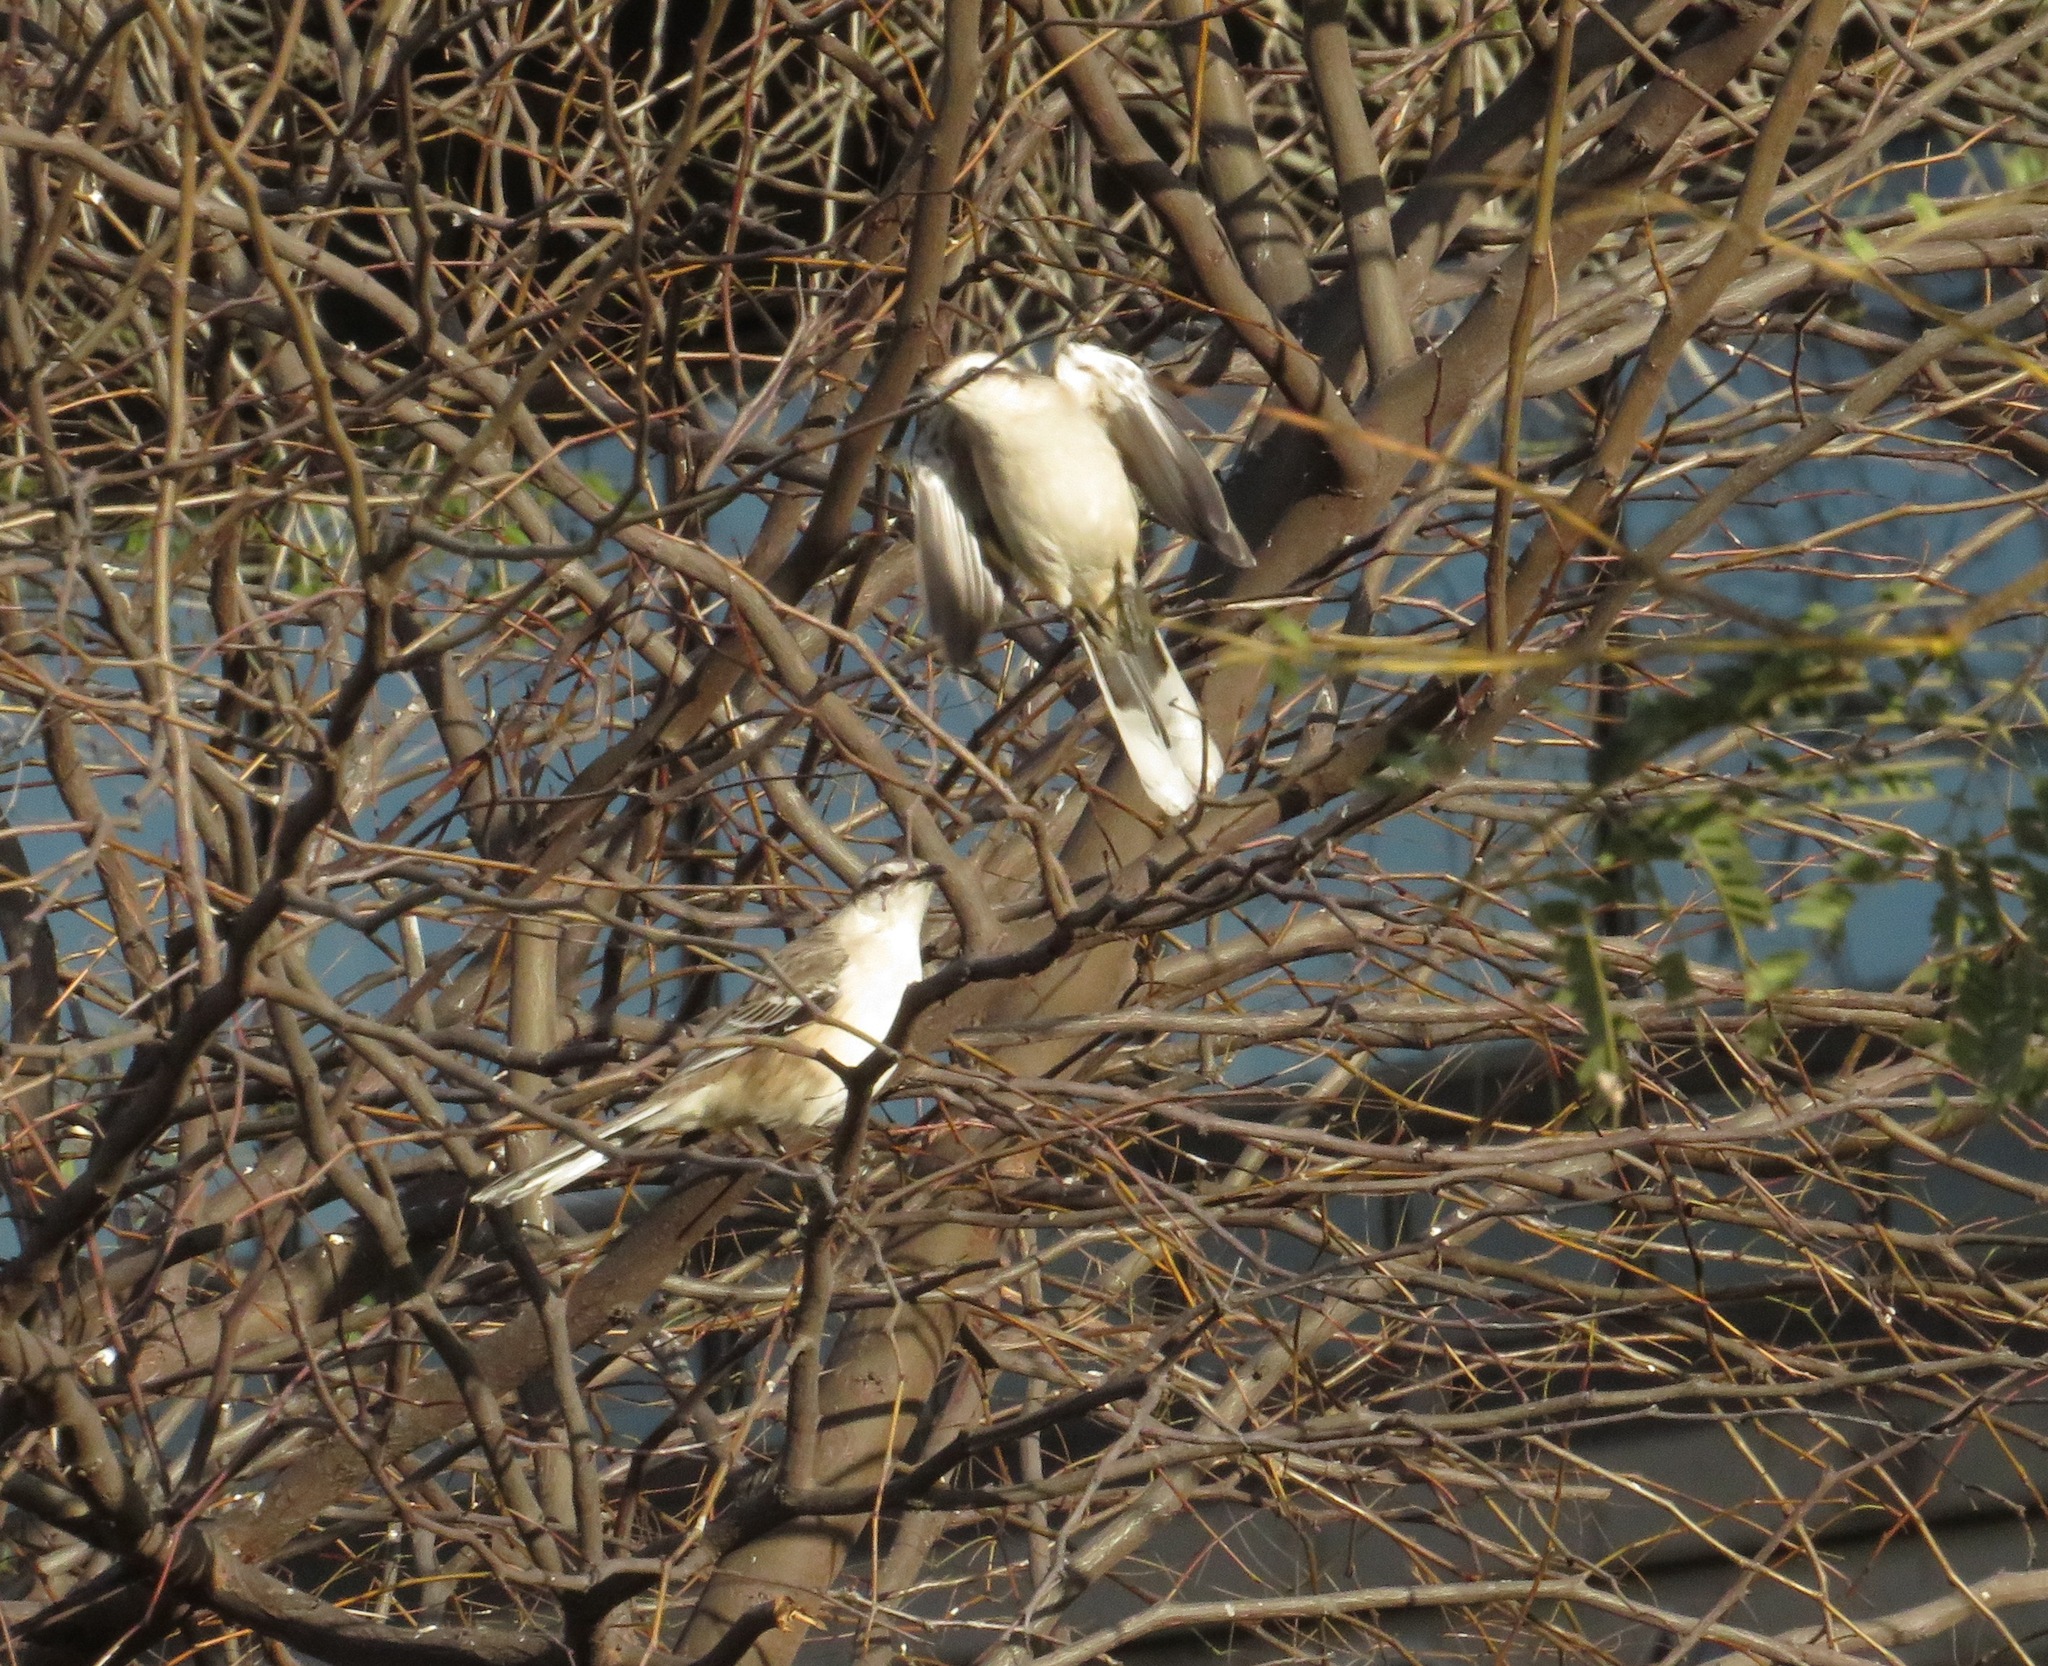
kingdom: Animalia
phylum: Chordata
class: Aves
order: Passeriformes
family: Mimidae
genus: Mimus
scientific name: Mimus saturninus
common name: Chalk-browed mockingbird
